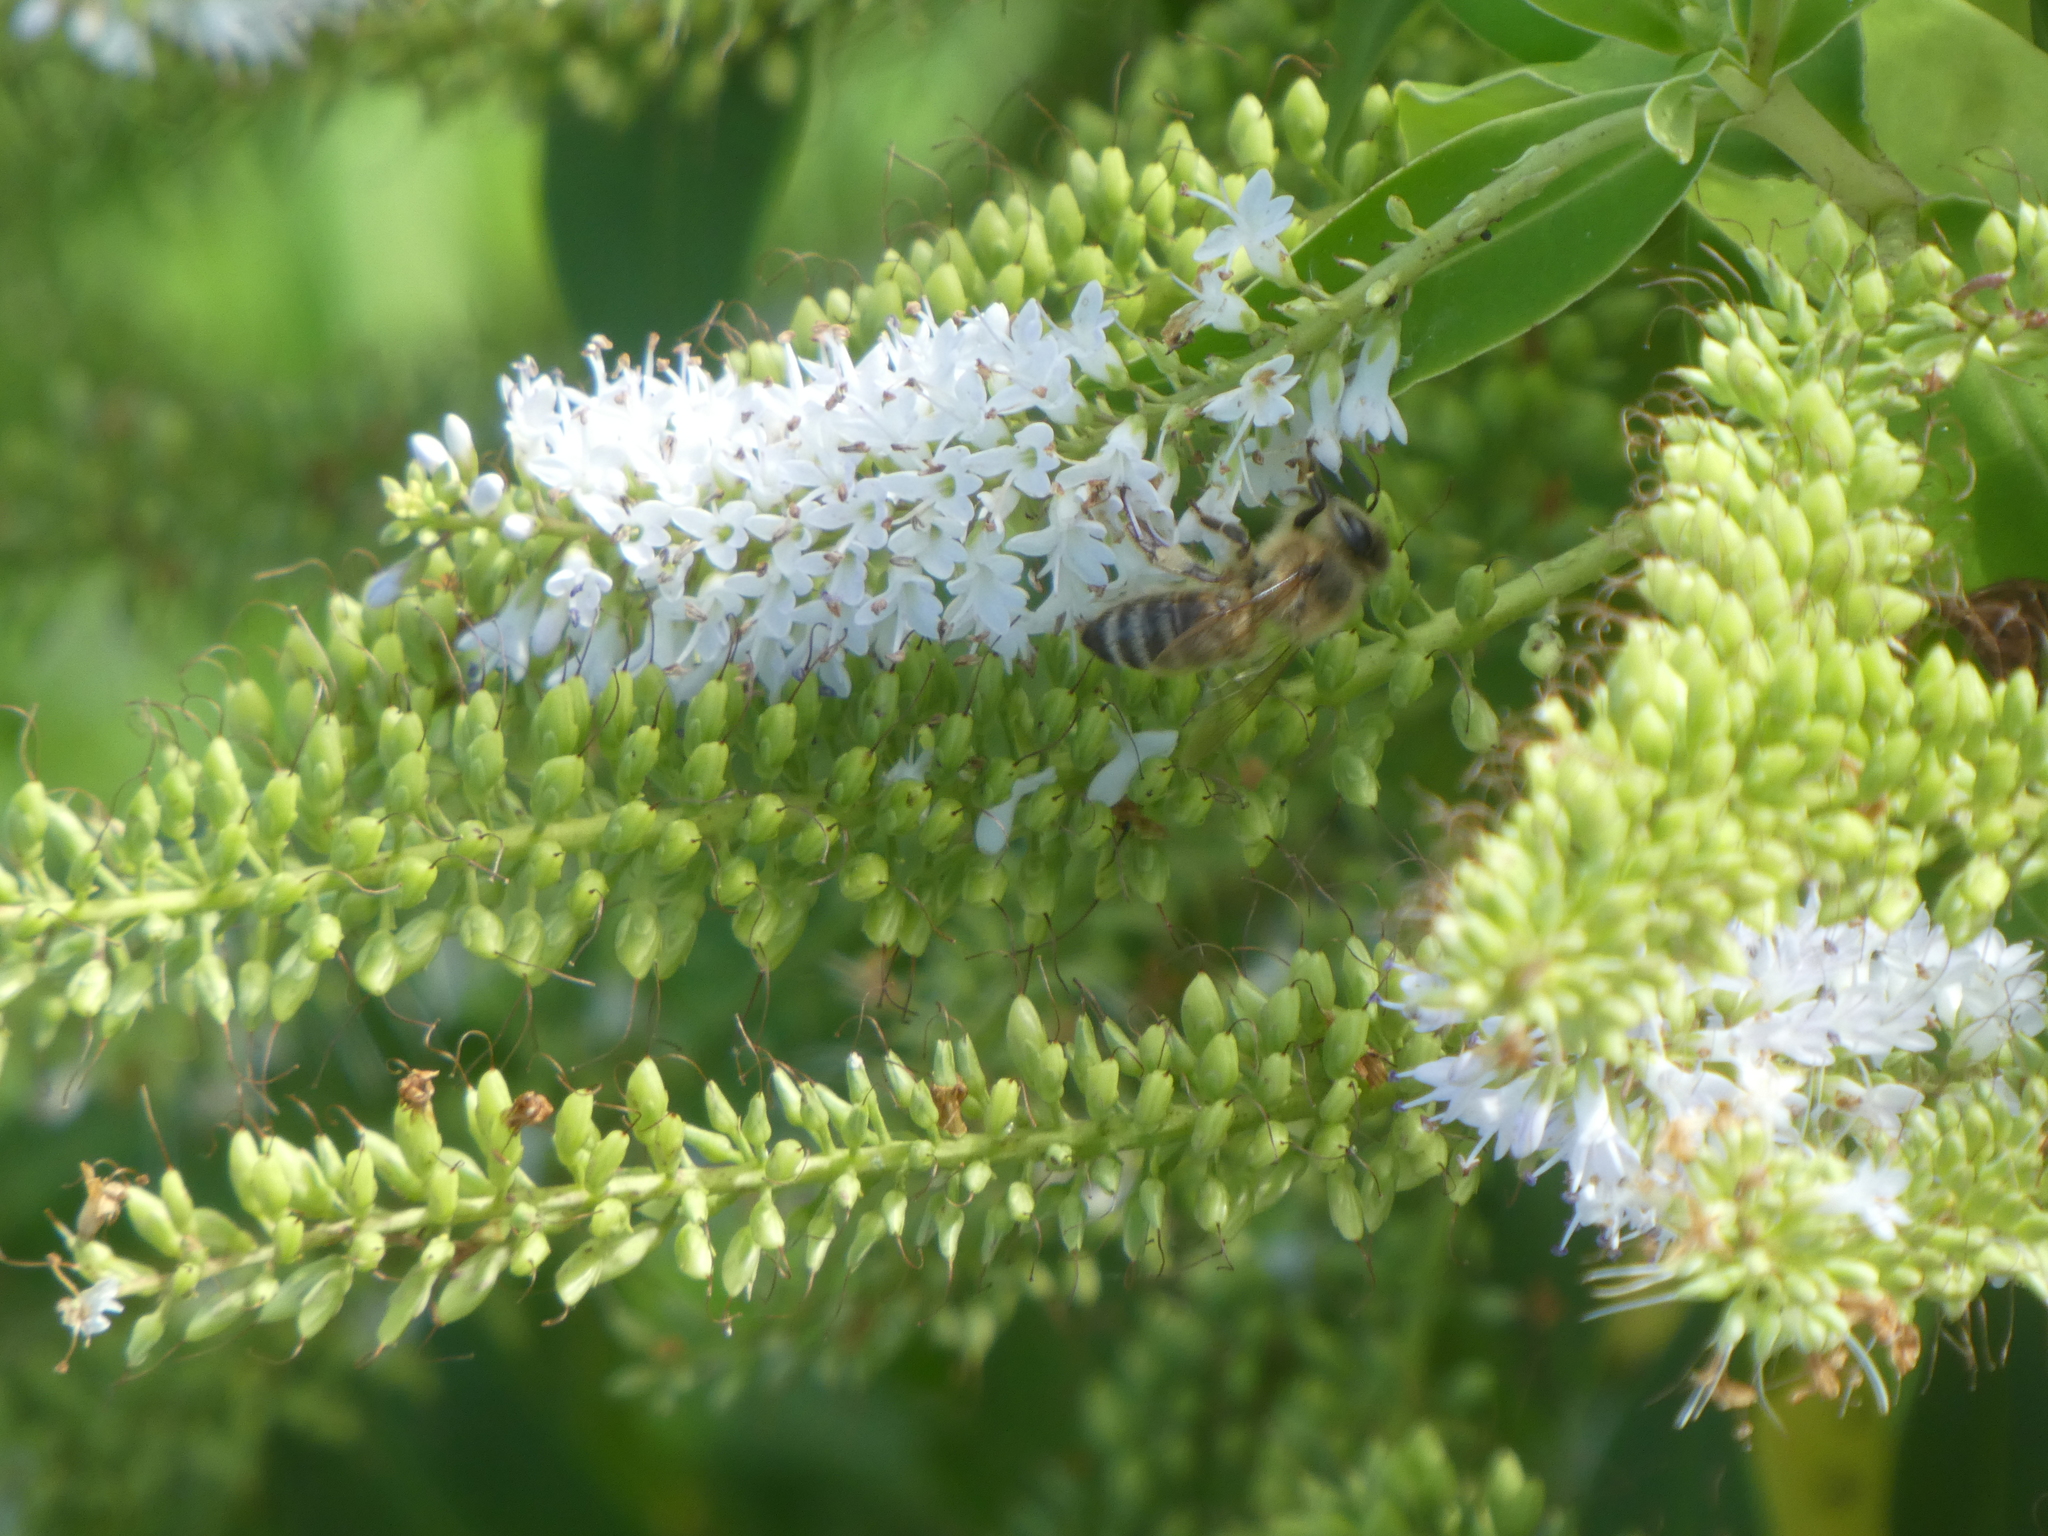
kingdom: Animalia
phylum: Arthropoda
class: Insecta
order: Hymenoptera
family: Apidae
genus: Apis
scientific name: Apis mellifera
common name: Honey bee
